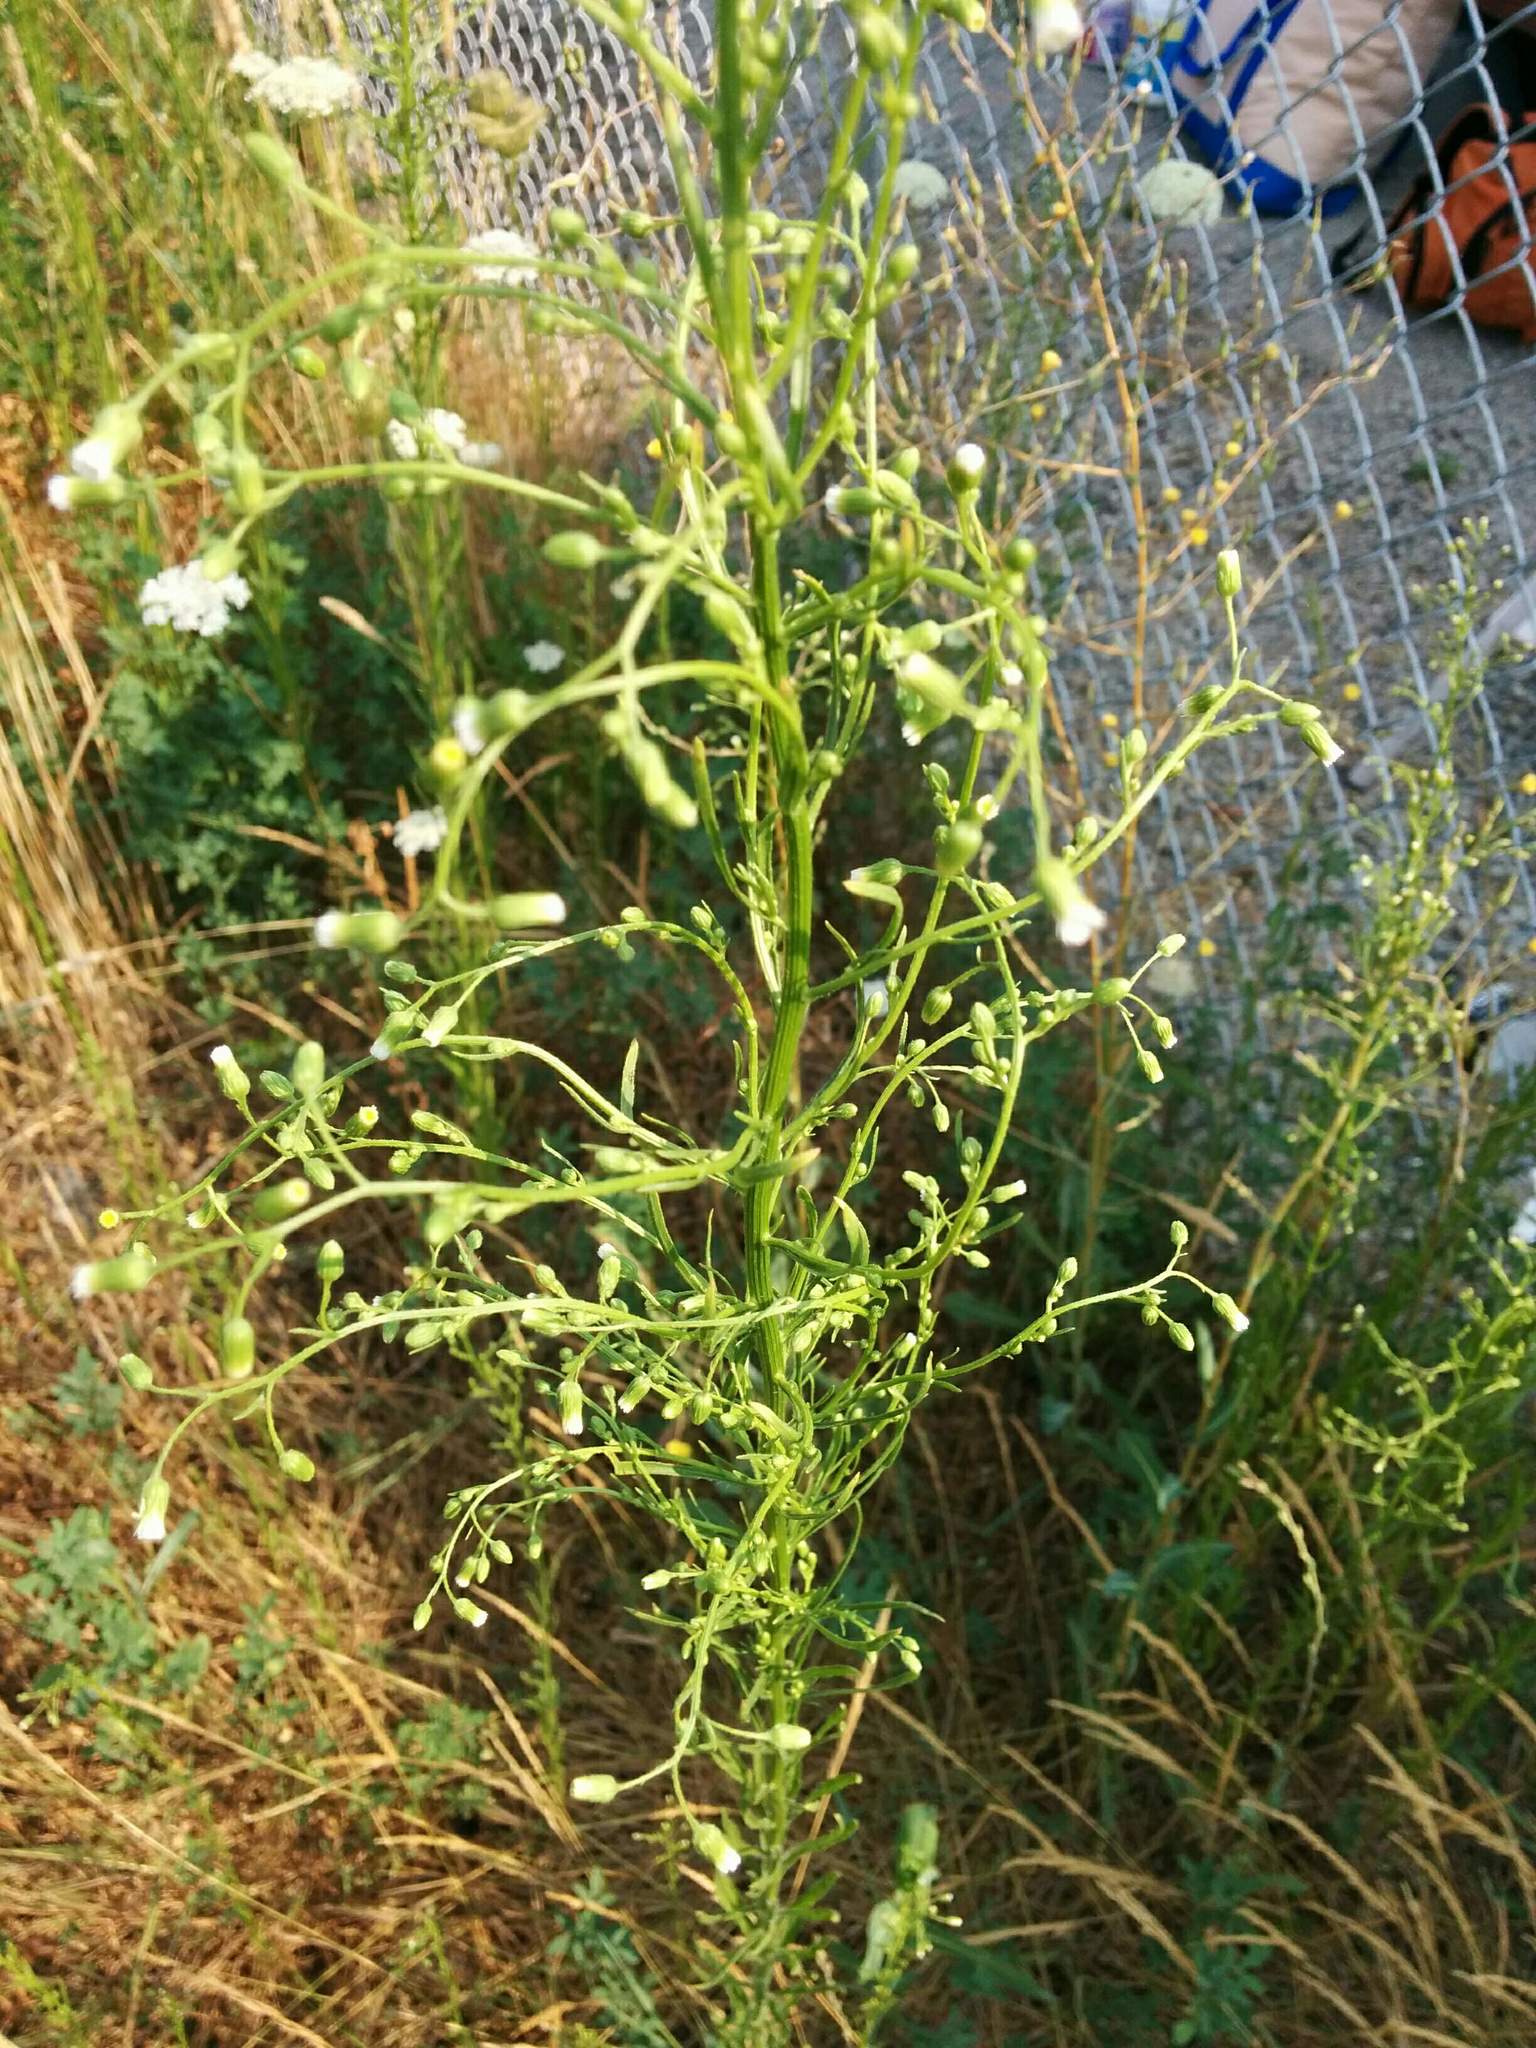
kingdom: Plantae
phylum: Tracheophyta
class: Magnoliopsida
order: Asterales
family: Asteraceae
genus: Erigeron
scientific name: Erigeron canadensis
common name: Canadian fleabane
